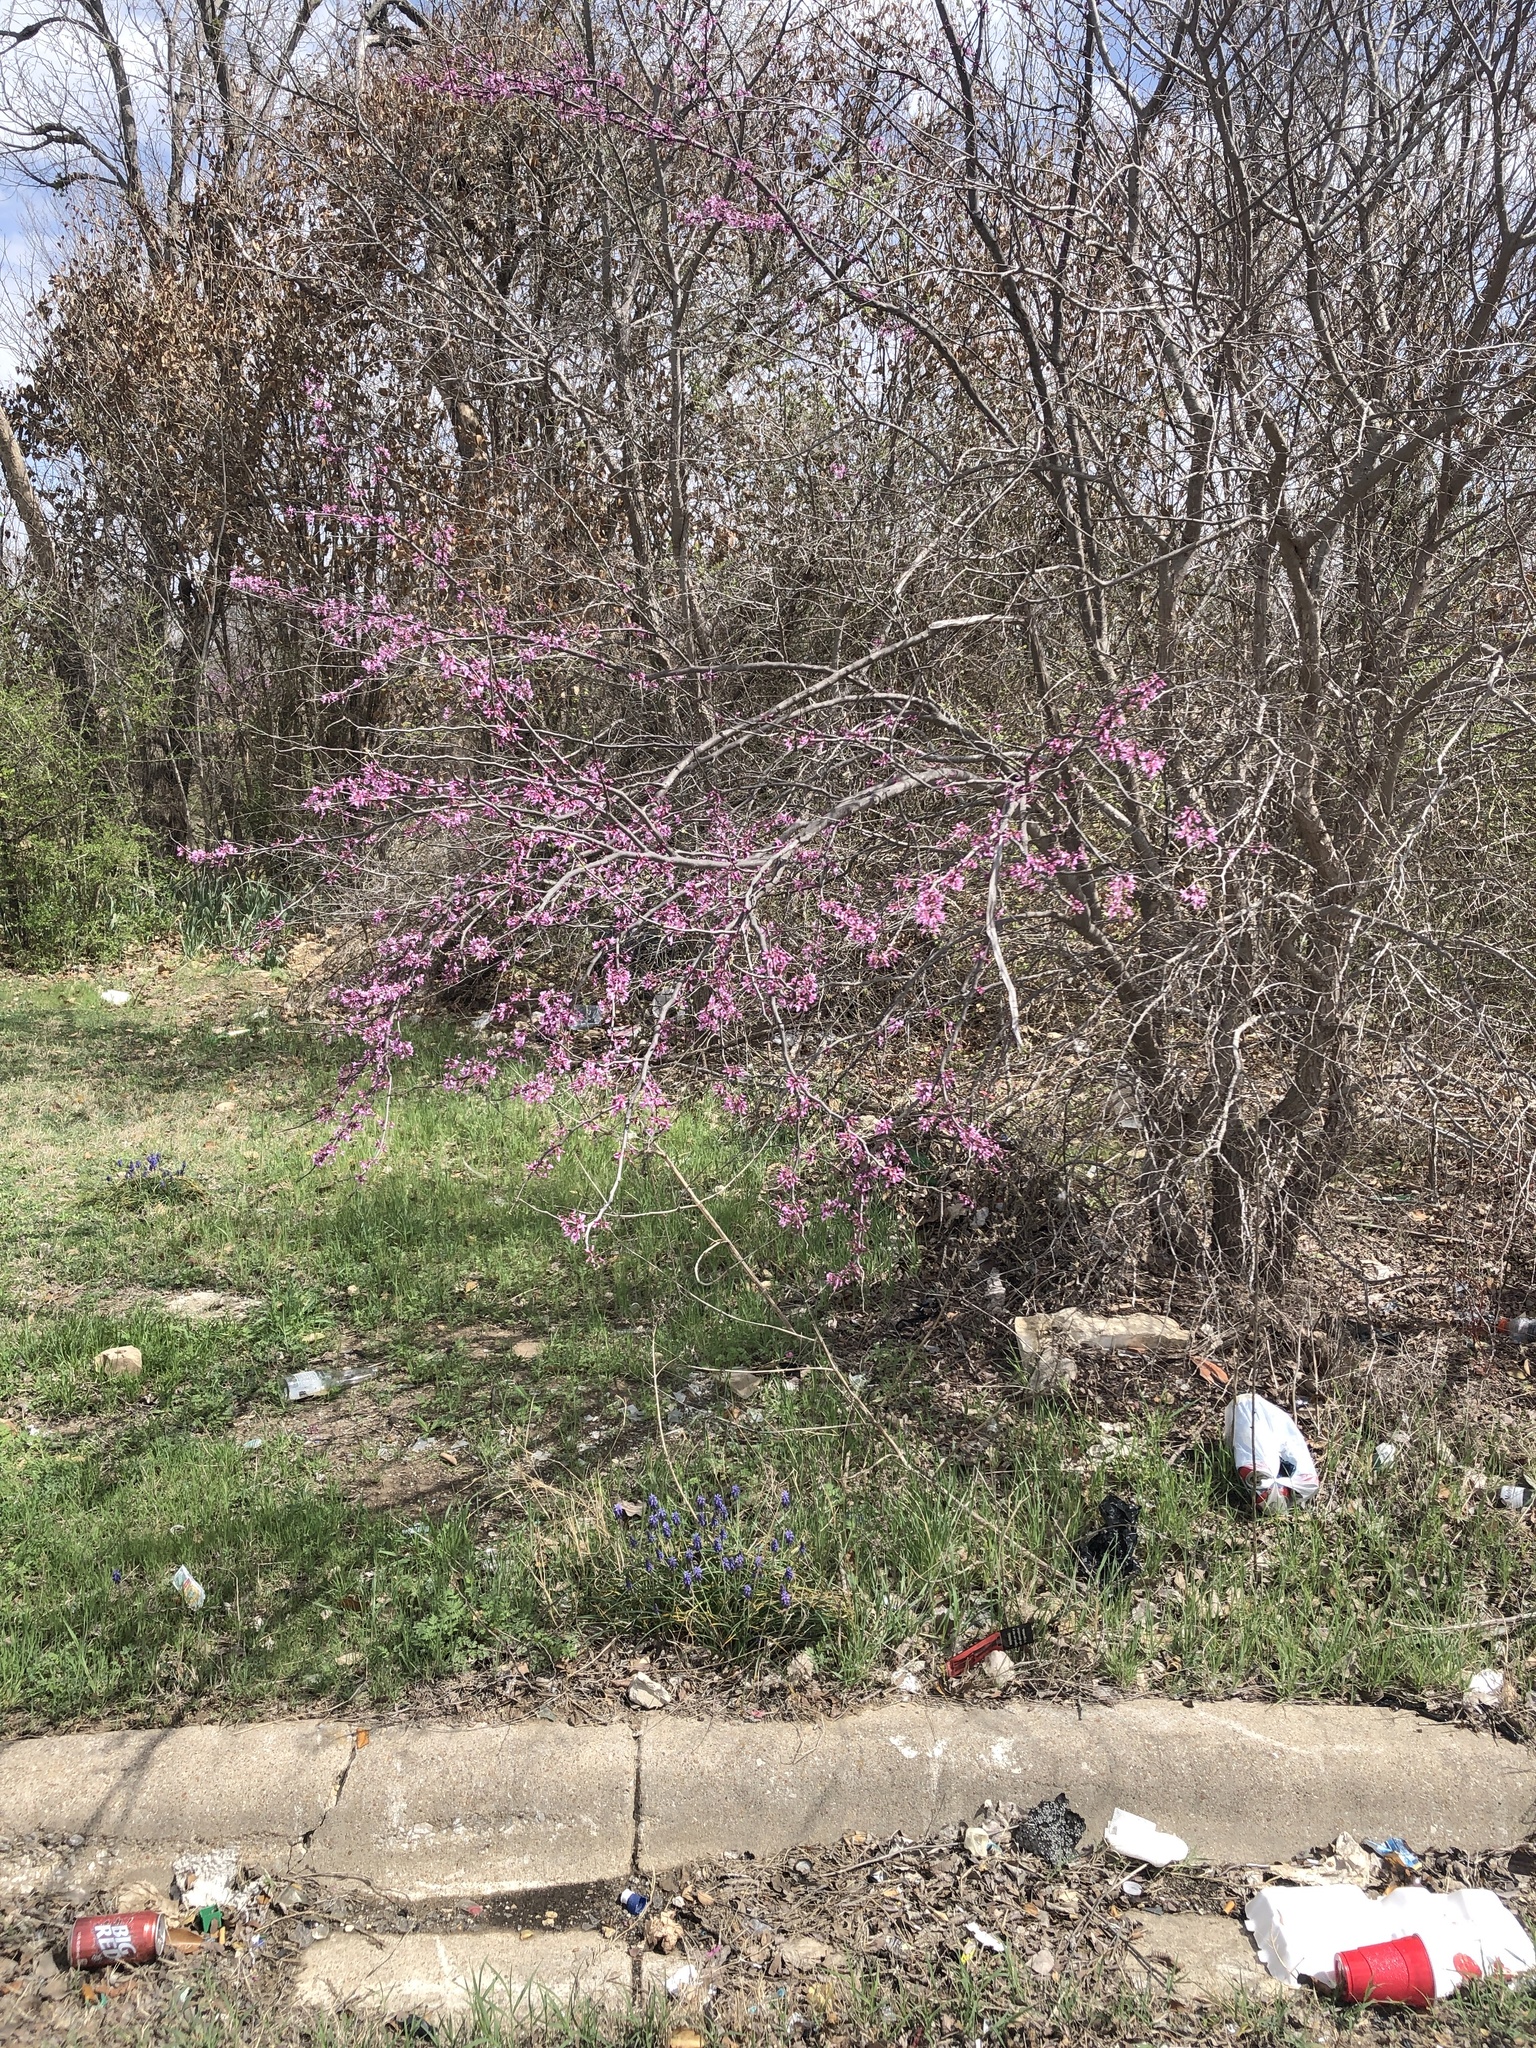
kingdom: Plantae
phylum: Tracheophyta
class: Magnoliopsida
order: Fabales
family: Fabaceae
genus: Cercis
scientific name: Cercis canadensis
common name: Eastern redbud
